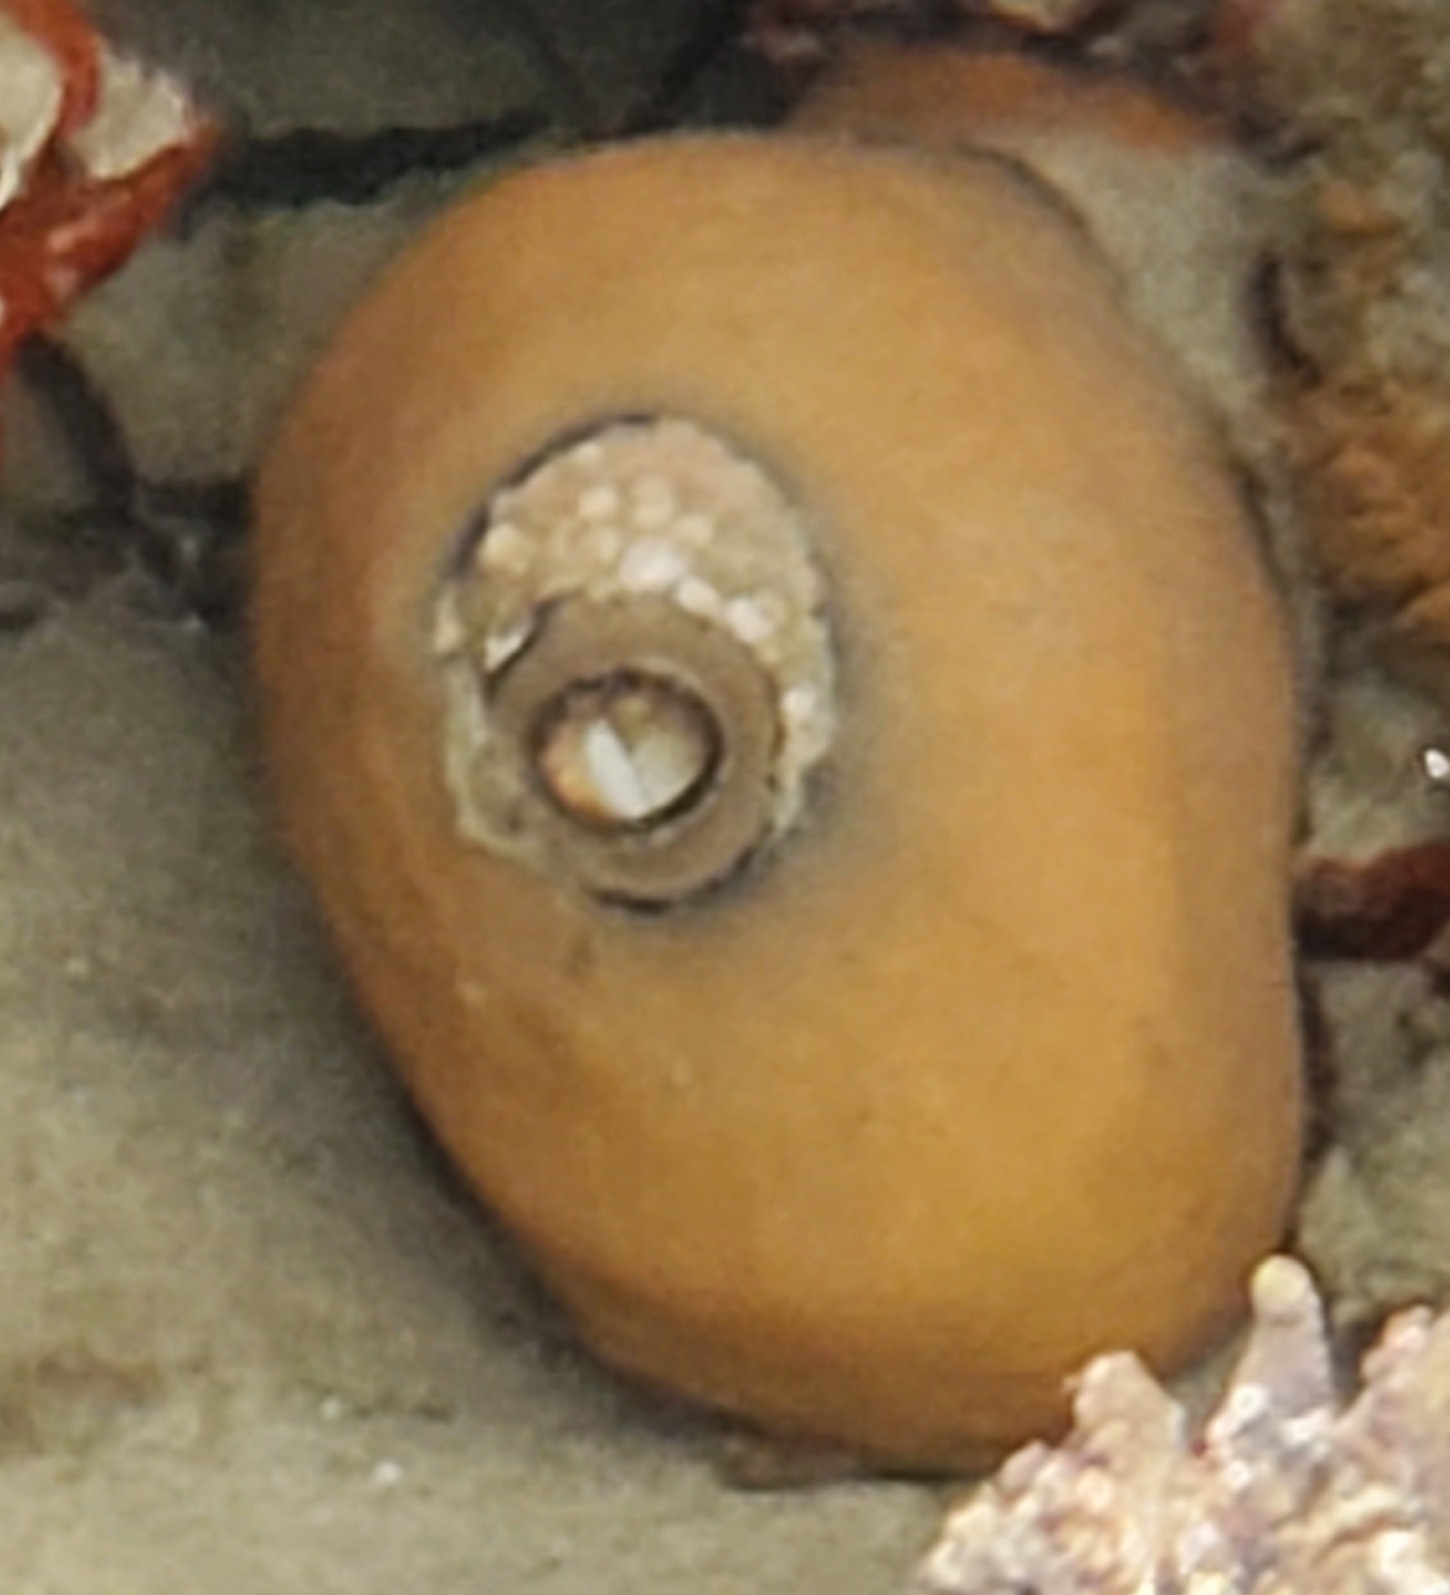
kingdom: Animalia
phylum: Mollusca
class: Gastropoda
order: Lepetellida
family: Fissurellidae
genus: Megathura
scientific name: Megathura crenulata
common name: Giant keyhole limpet
